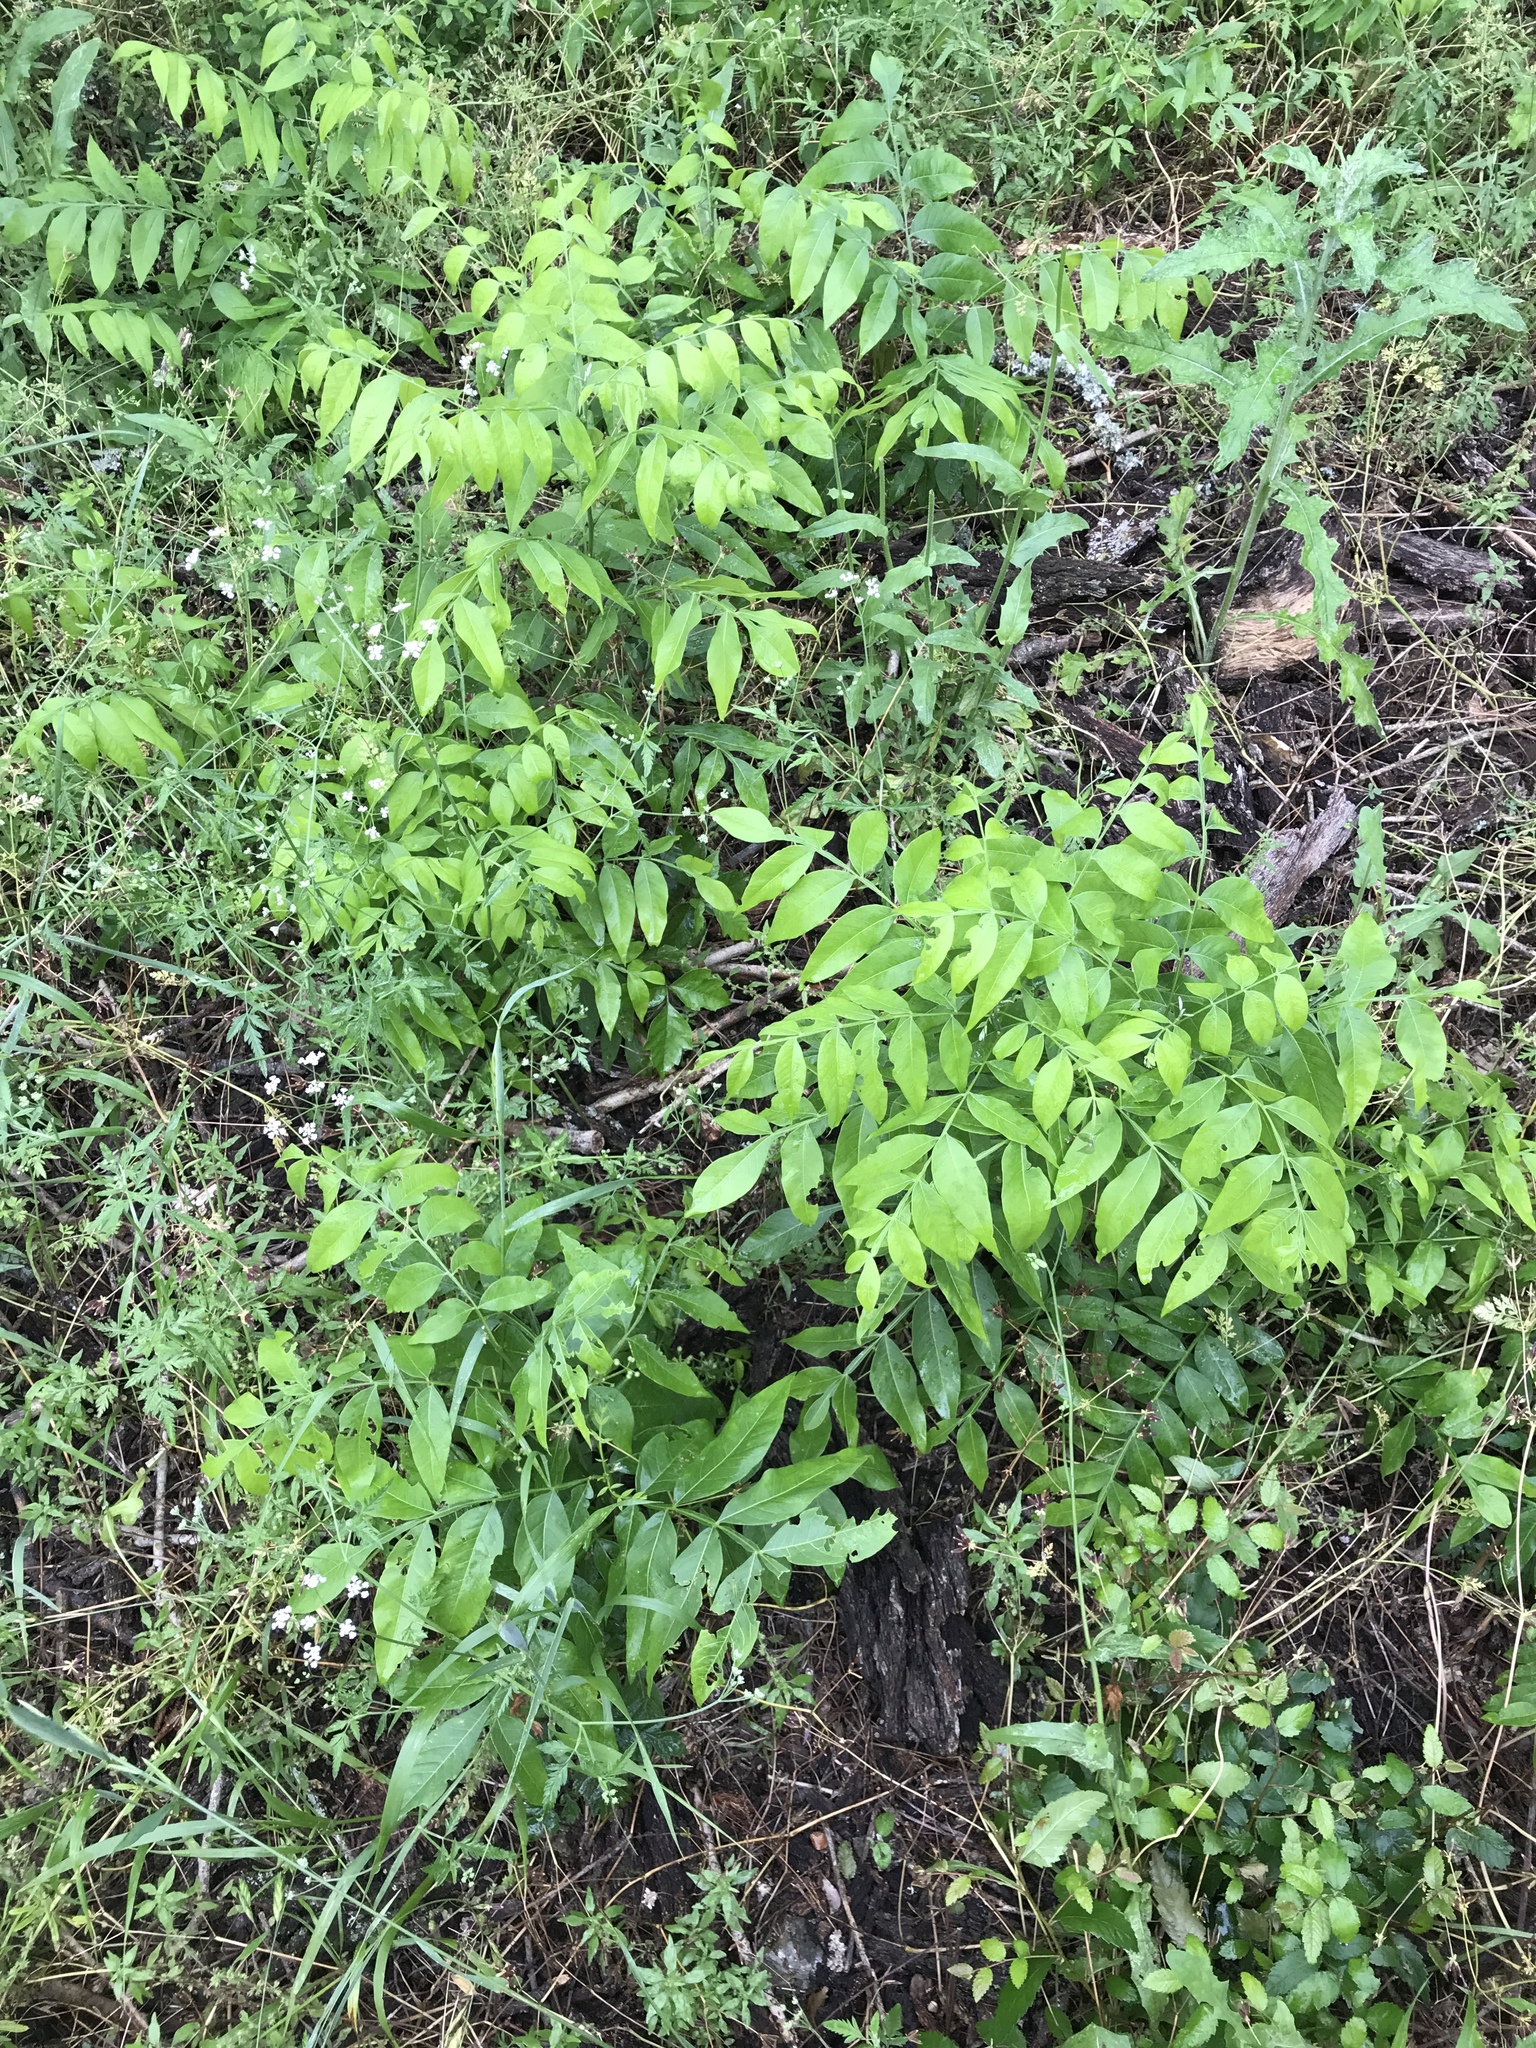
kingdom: Plantae
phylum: Tracheophyta
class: Magnoliopsida
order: Sapindales
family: Sapindaceae
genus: Sapindus
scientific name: Sapindus drummondii
